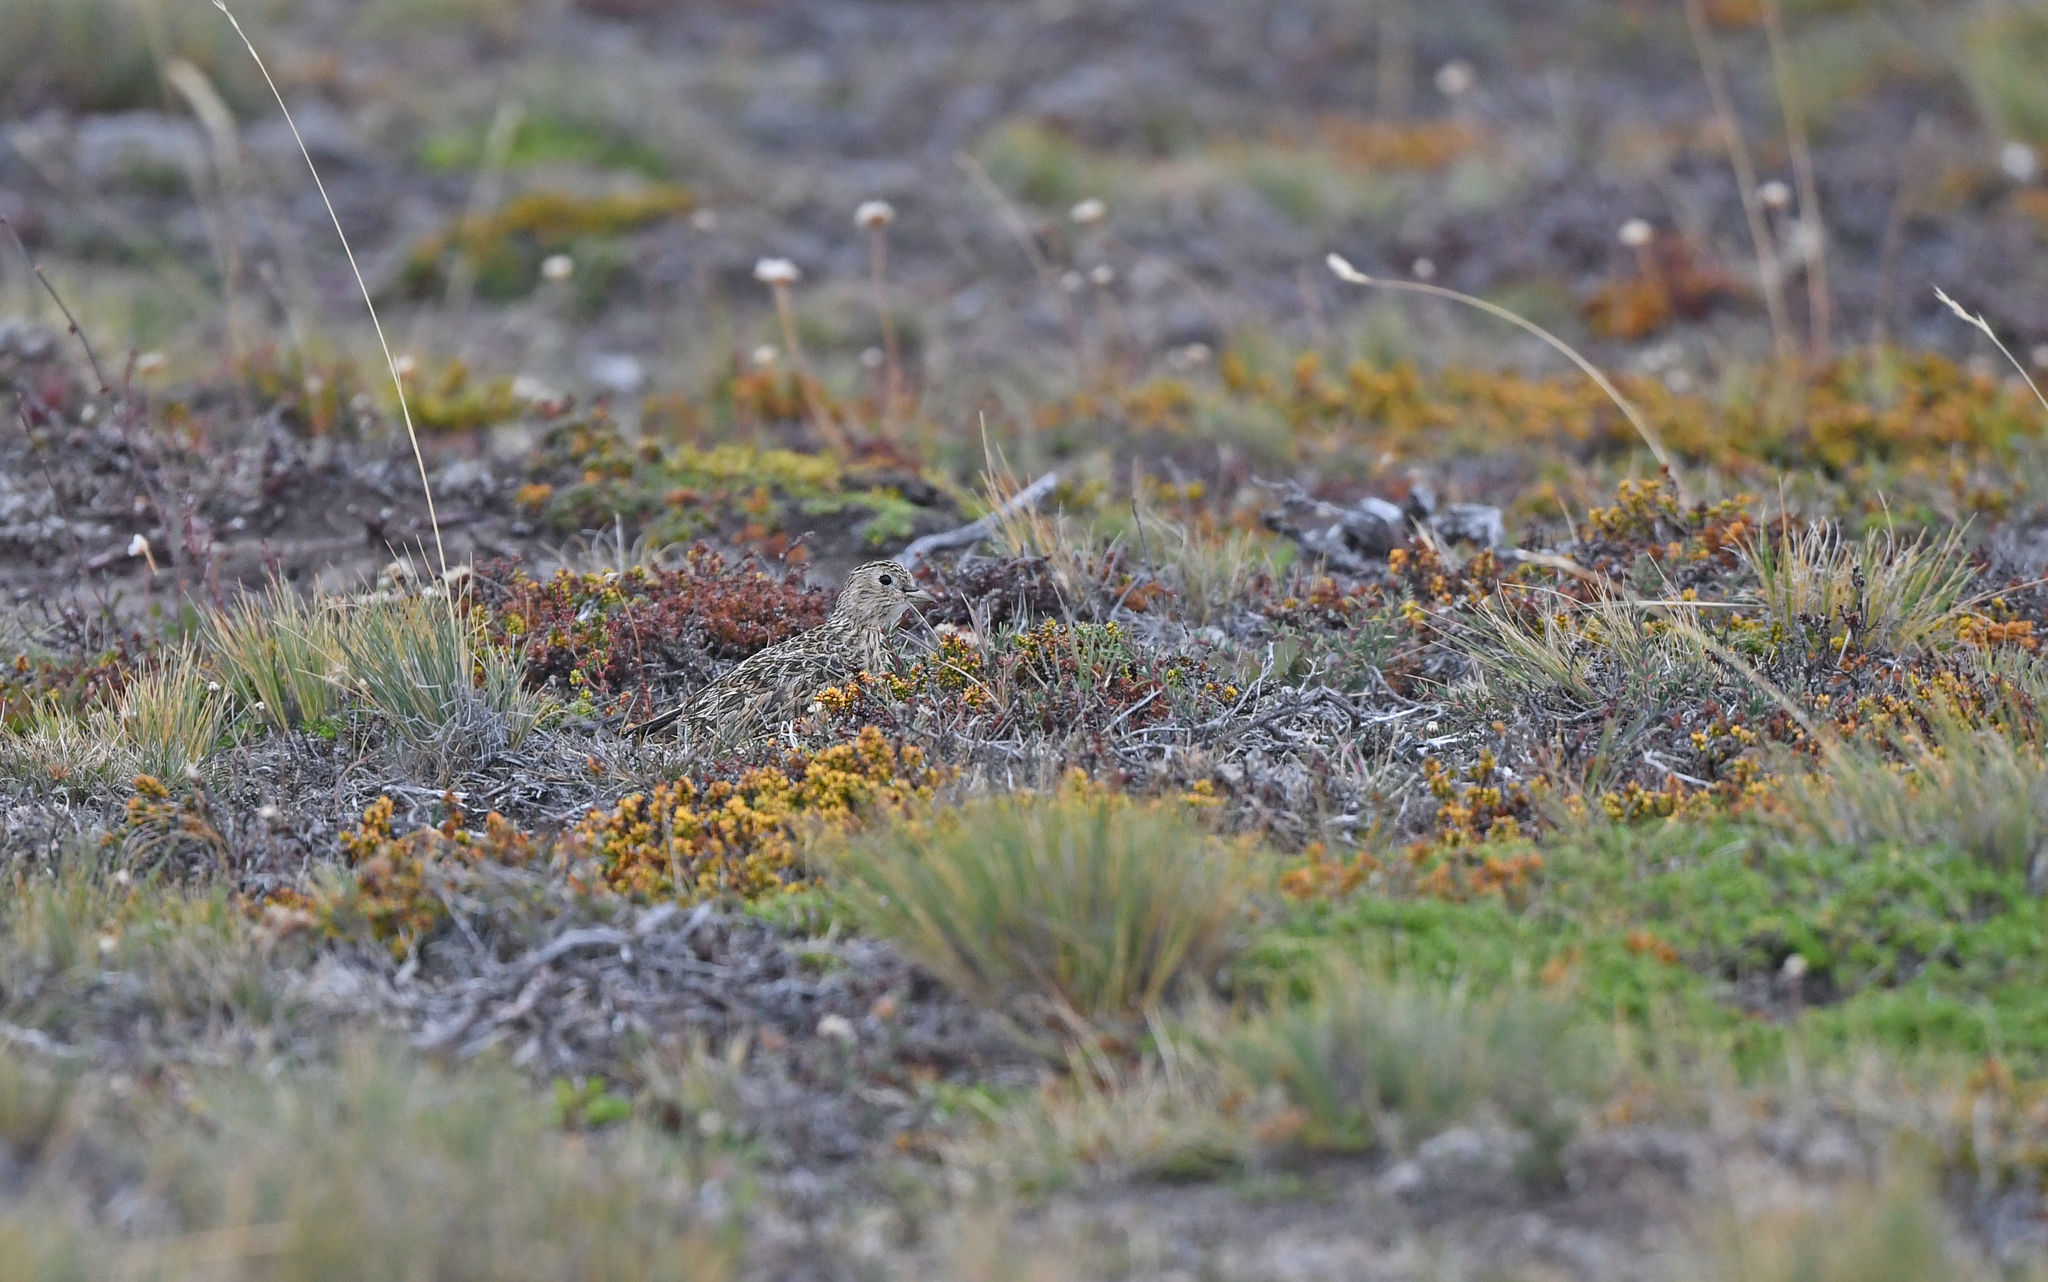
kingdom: Animalia
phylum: Chordata
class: Aves
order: Charadriiformes
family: Thinocoridae
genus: Thinocorus
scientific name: Thinocorus rumicivorus
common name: Least seedsnipe
